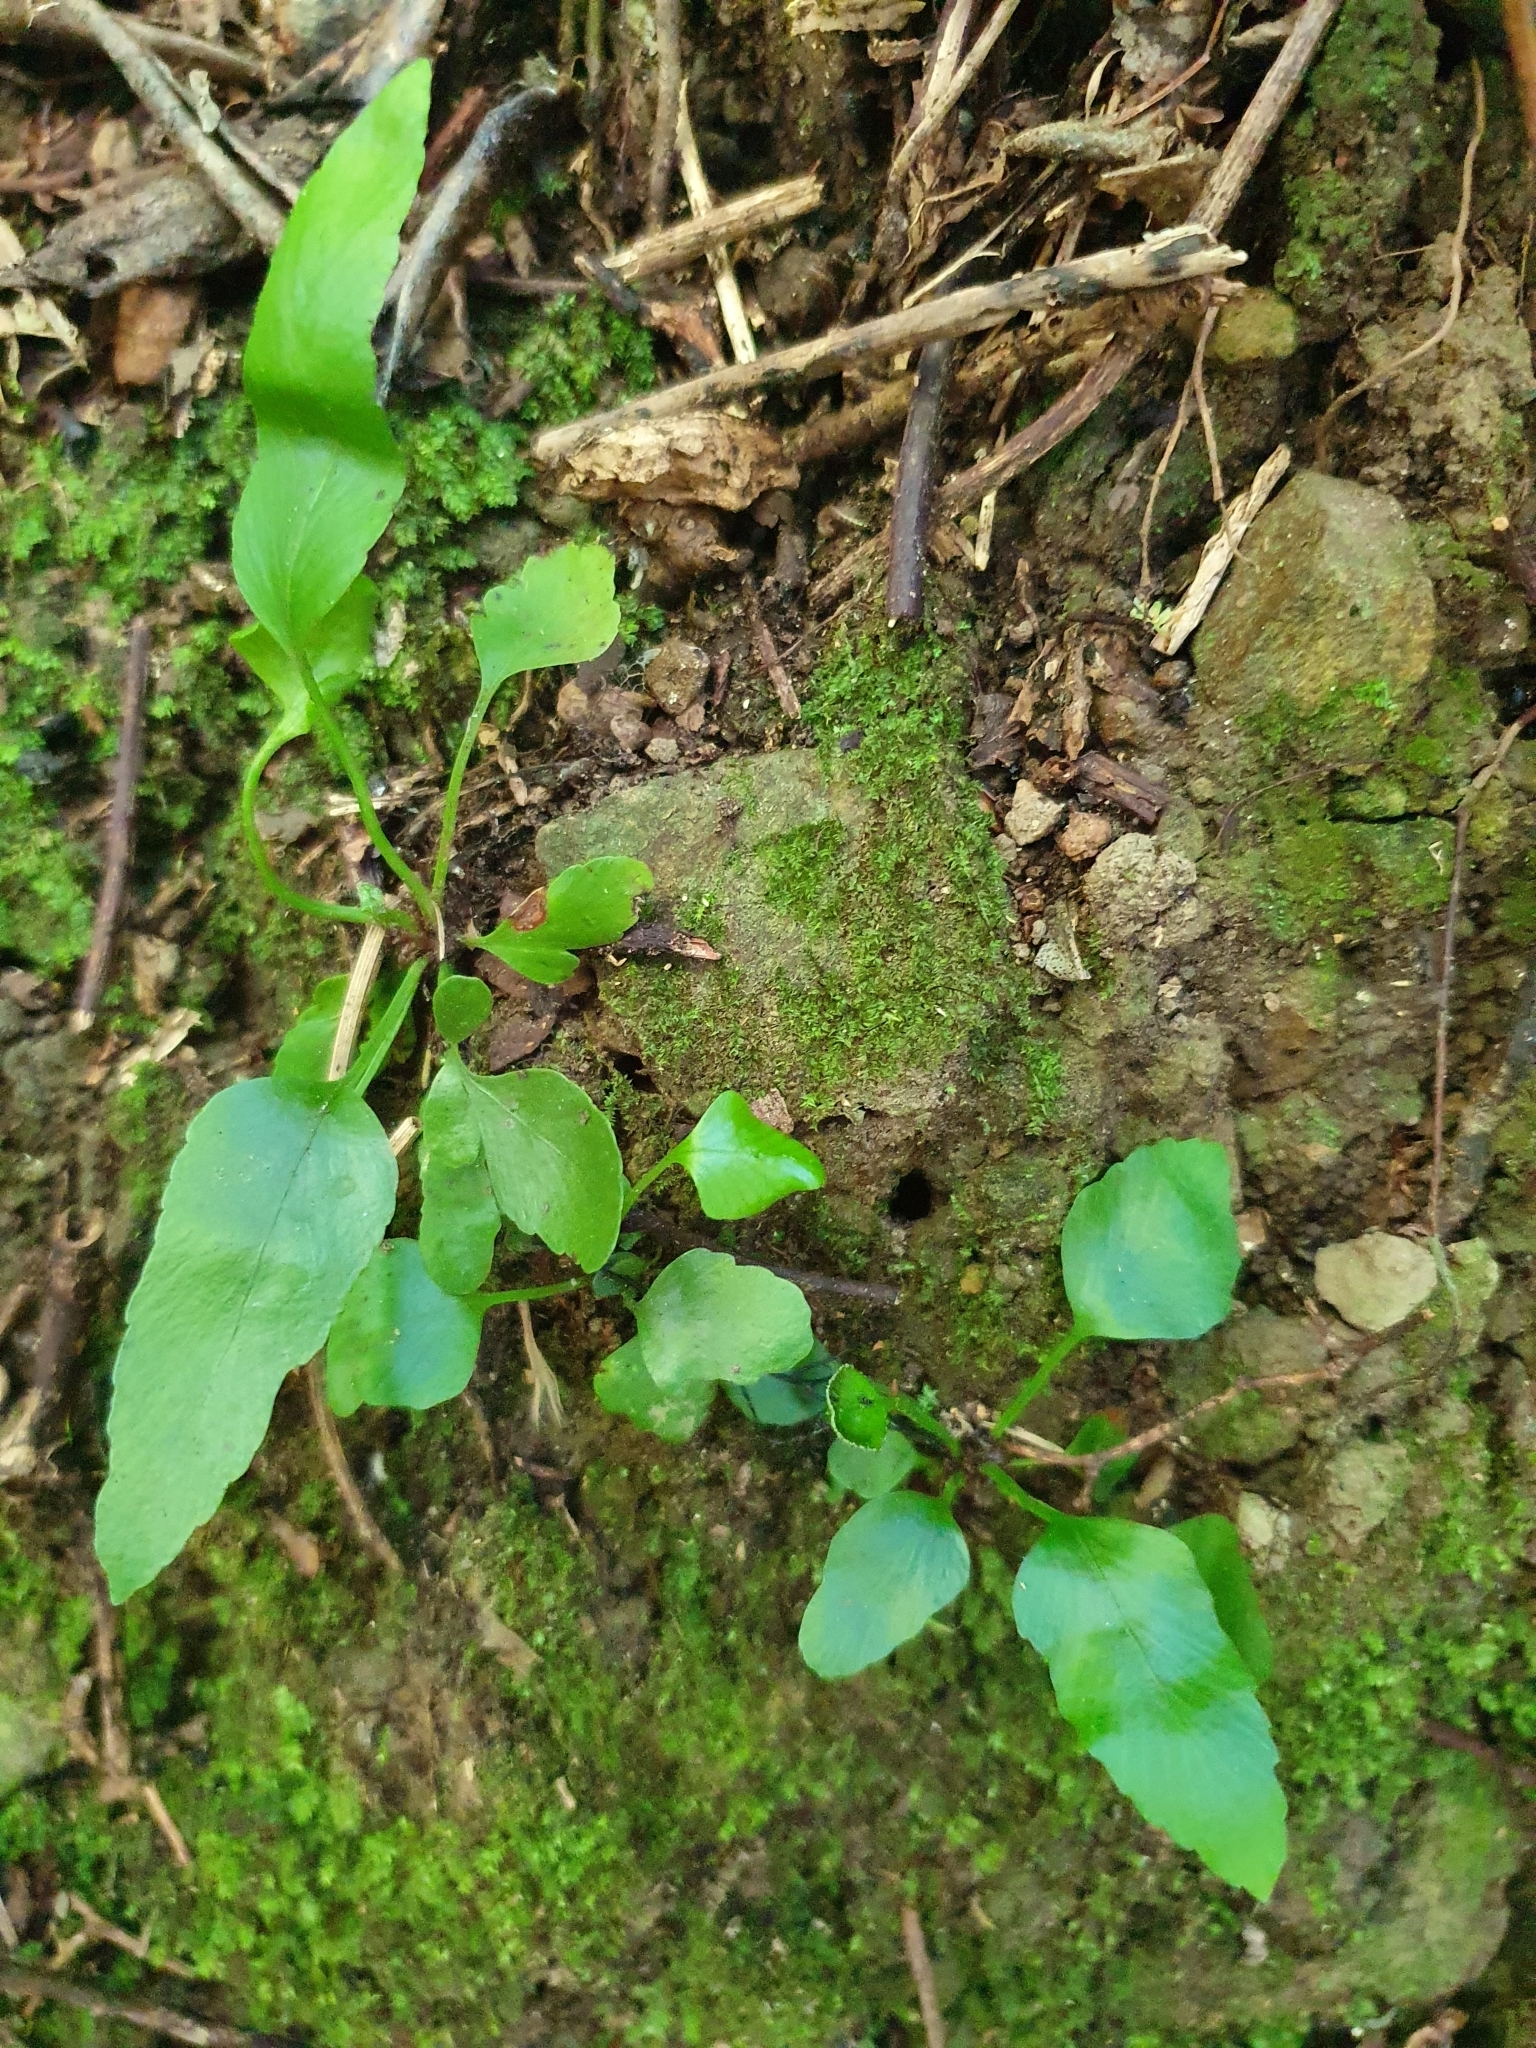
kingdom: Plantae
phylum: Tracheophyta
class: Polypodiopsida
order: Polypodiales
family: Aspleniaceae
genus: Asplenium
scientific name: Asplenium oblongifolium
